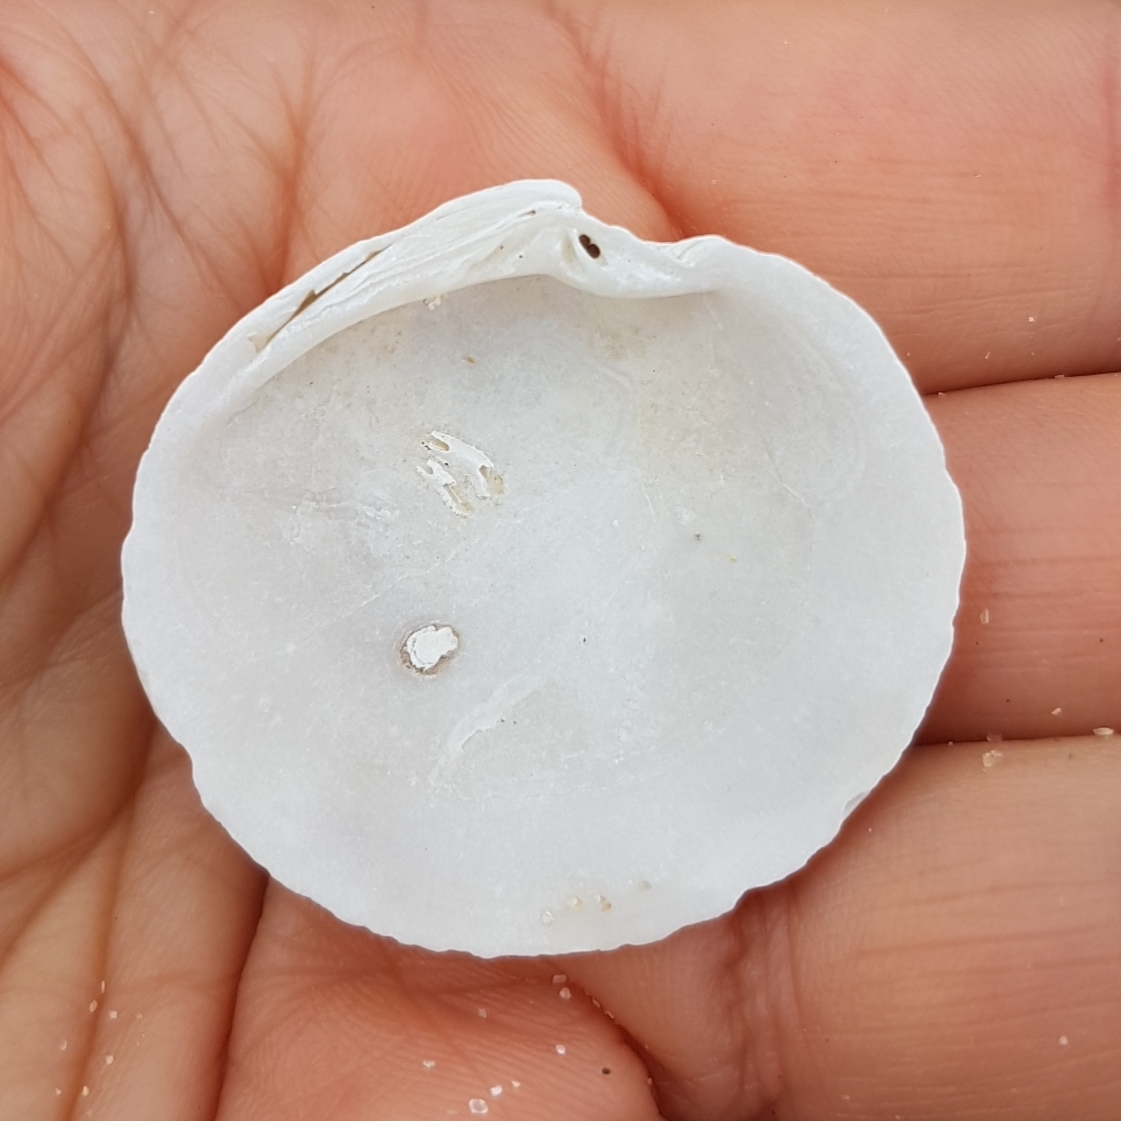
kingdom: Animalia
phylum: Mollusca
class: Bivalvia
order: Venerida
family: Veneridae
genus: Dosinia
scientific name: Dosinia exoleta
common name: Rayed artemis
